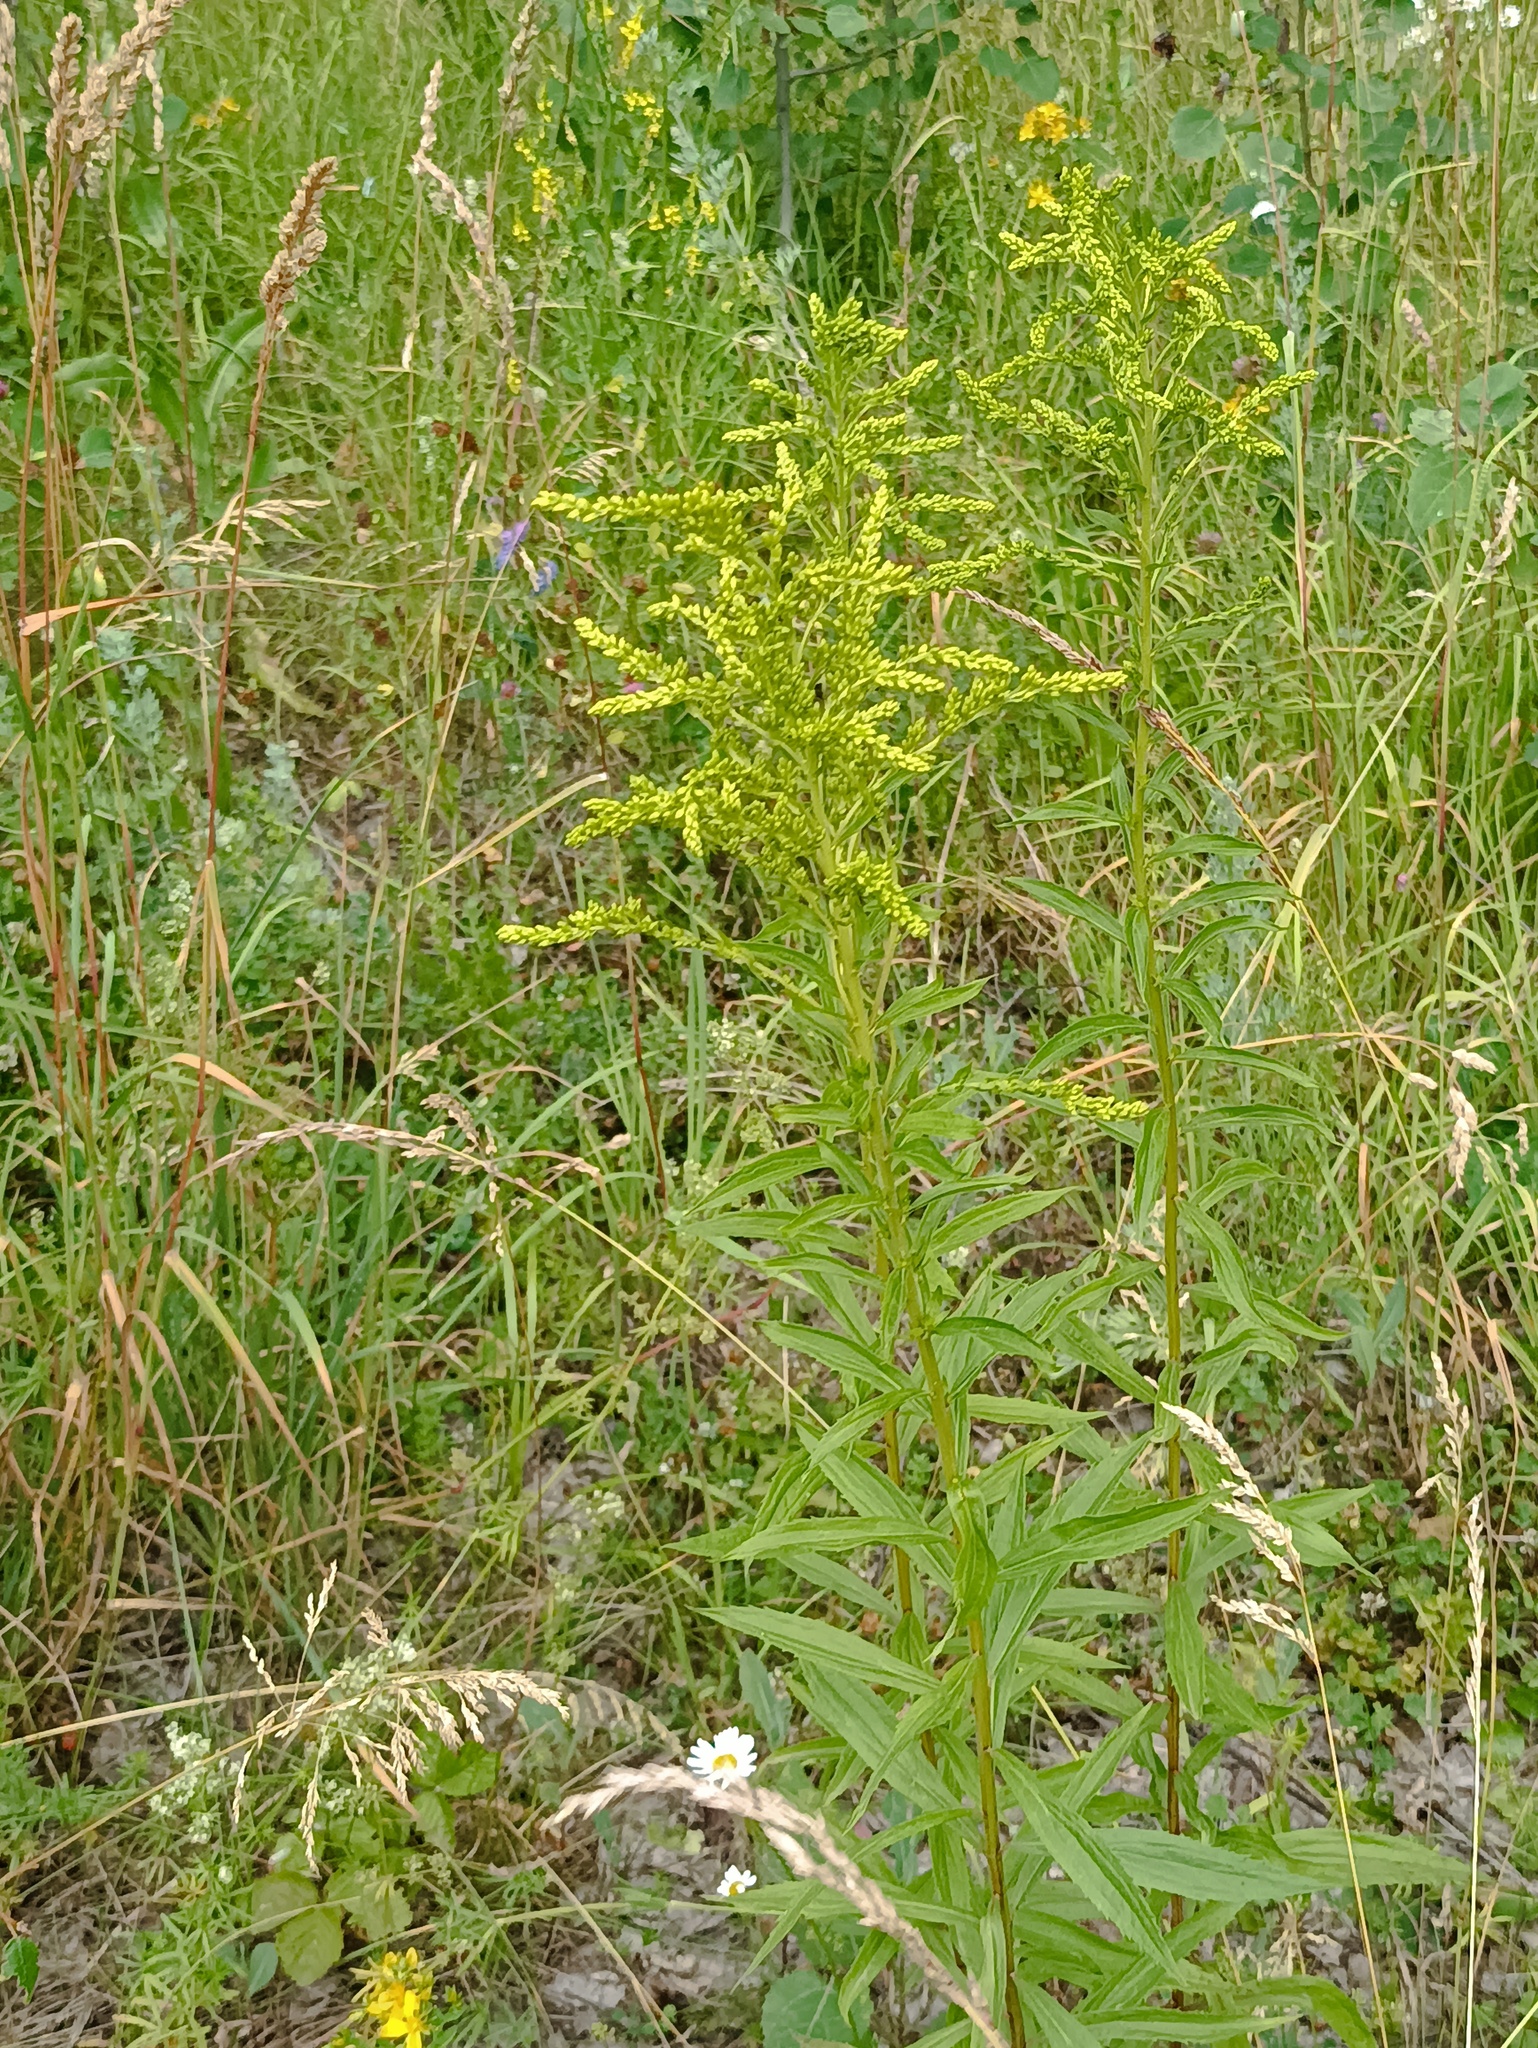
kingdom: Plantae
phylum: Tracheophyta
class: Magnoliopsida
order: Asterales
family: Asteraceae
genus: Solidago
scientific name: Solidago canadensis
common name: Canada goldenrod
